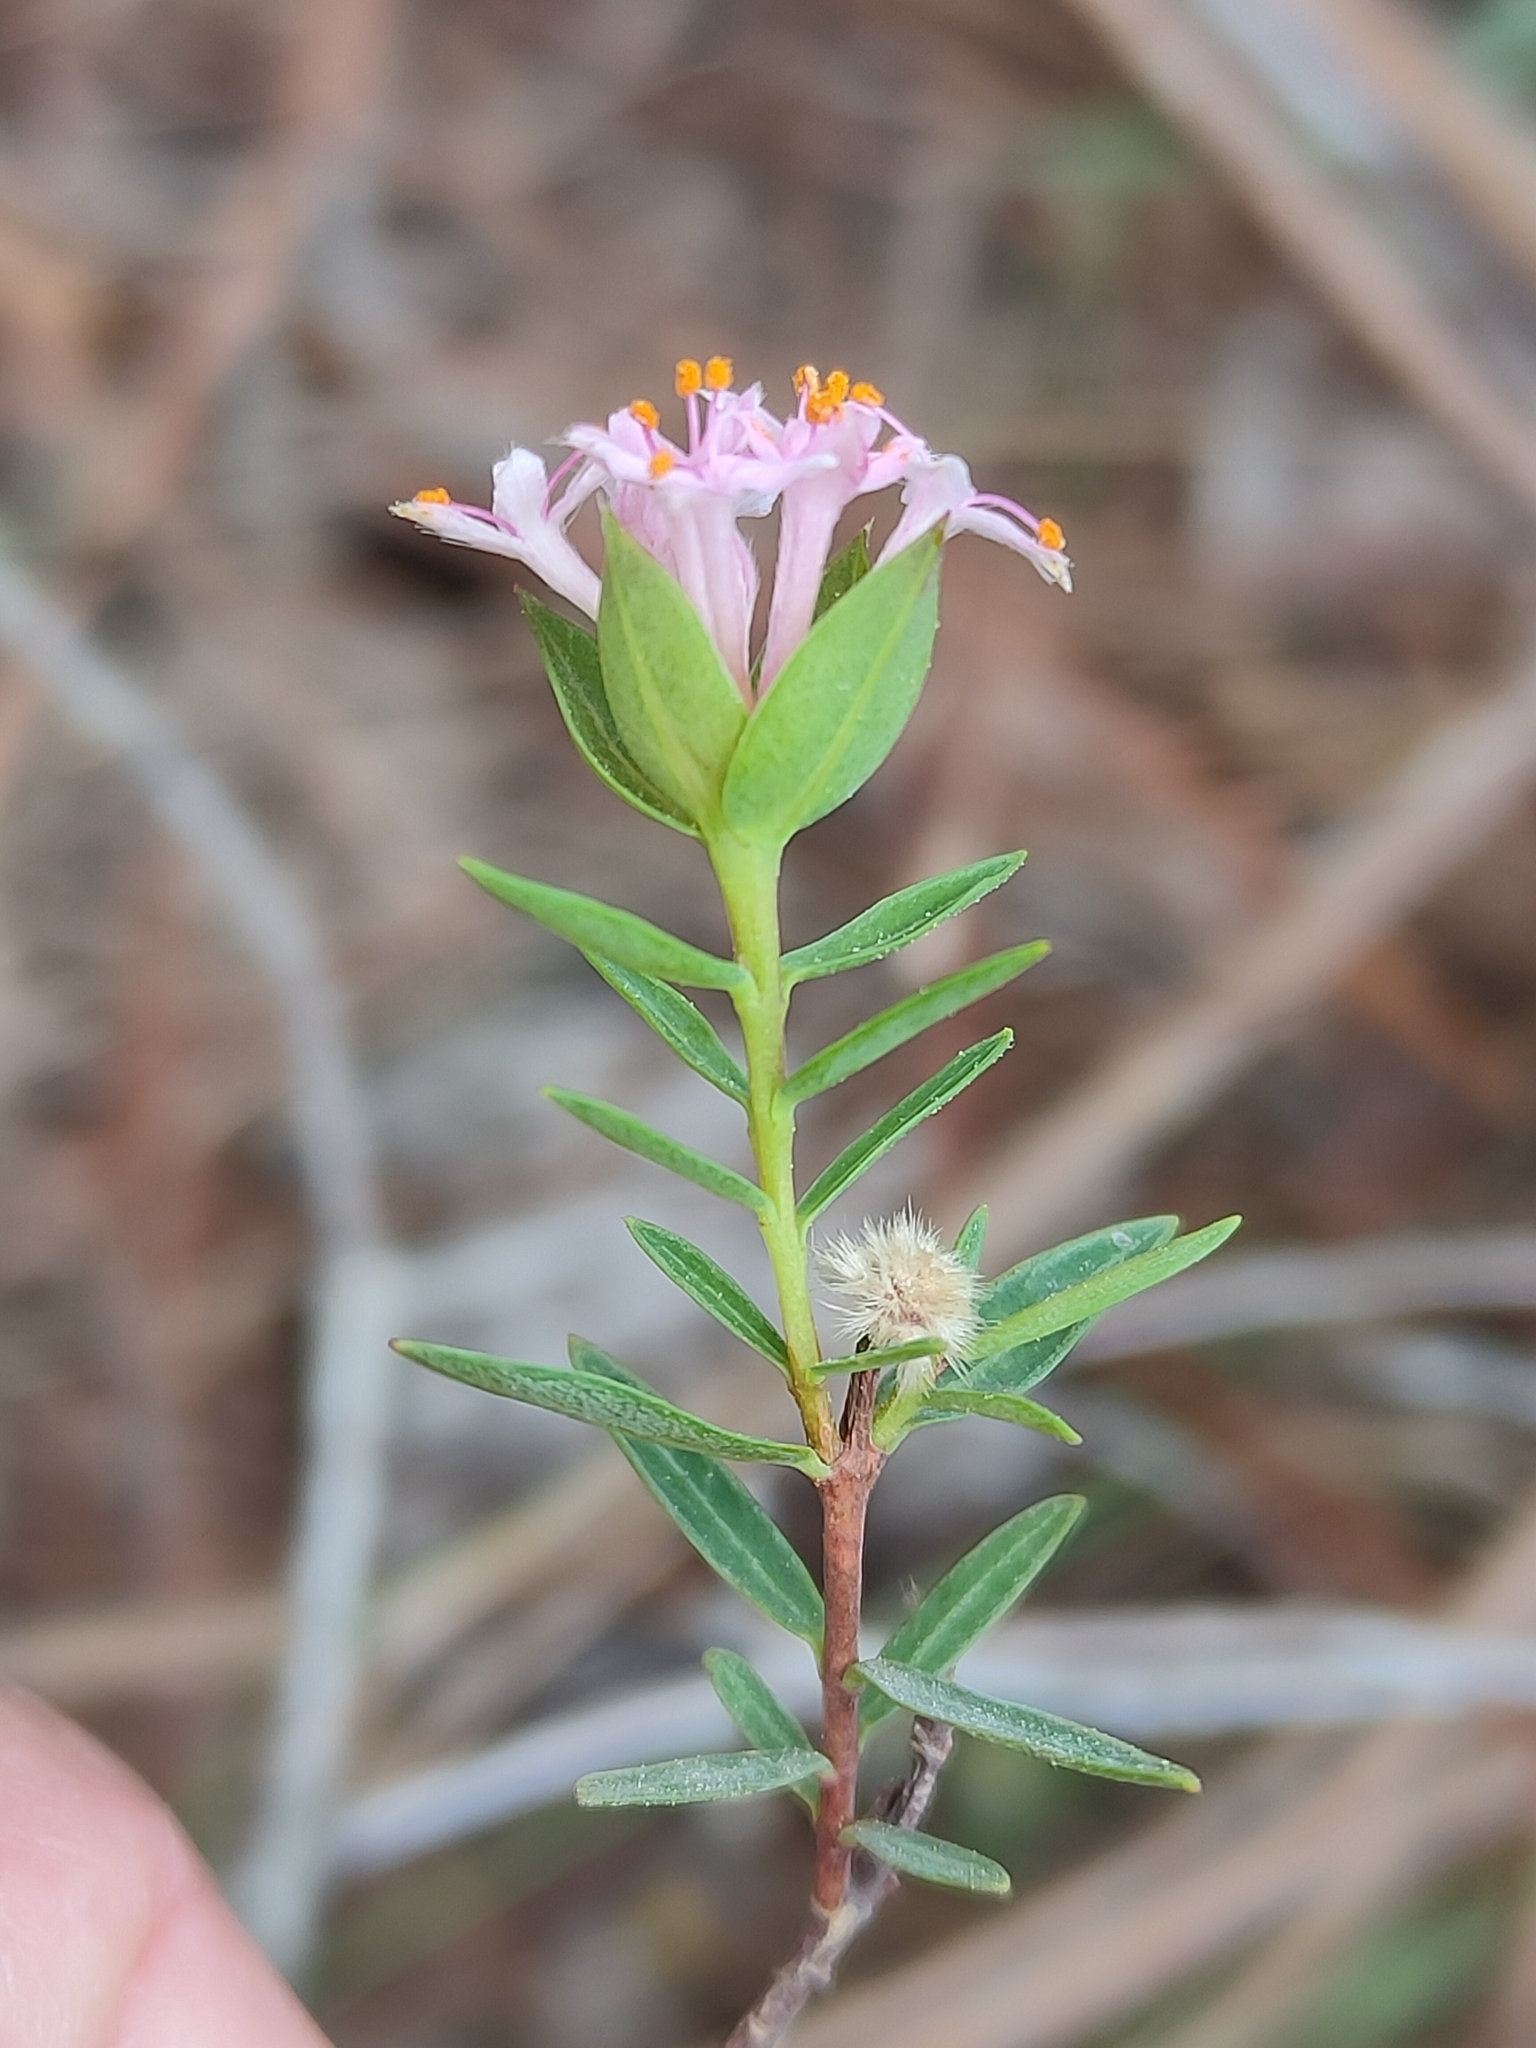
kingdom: Plantae
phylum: Tracheophyta
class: Magnoliopsida
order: Malvales
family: Thymelaeaceae
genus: Pimelea
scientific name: Pimelea linifolia
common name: Queen-of-the-bush
